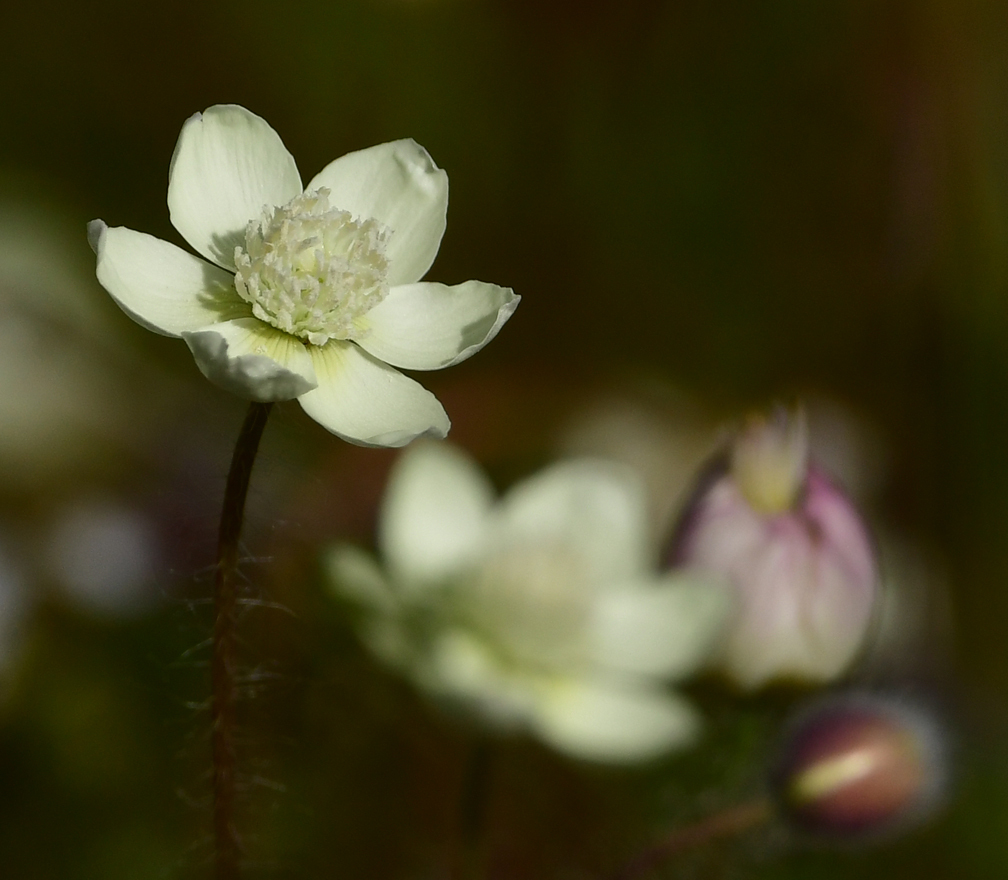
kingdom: Plantae
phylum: Tracheophyta
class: Magnoliopsida
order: Ranunculales
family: Papaveraceae
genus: Platystemon
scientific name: Platystemon californicus
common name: Cream-cups
